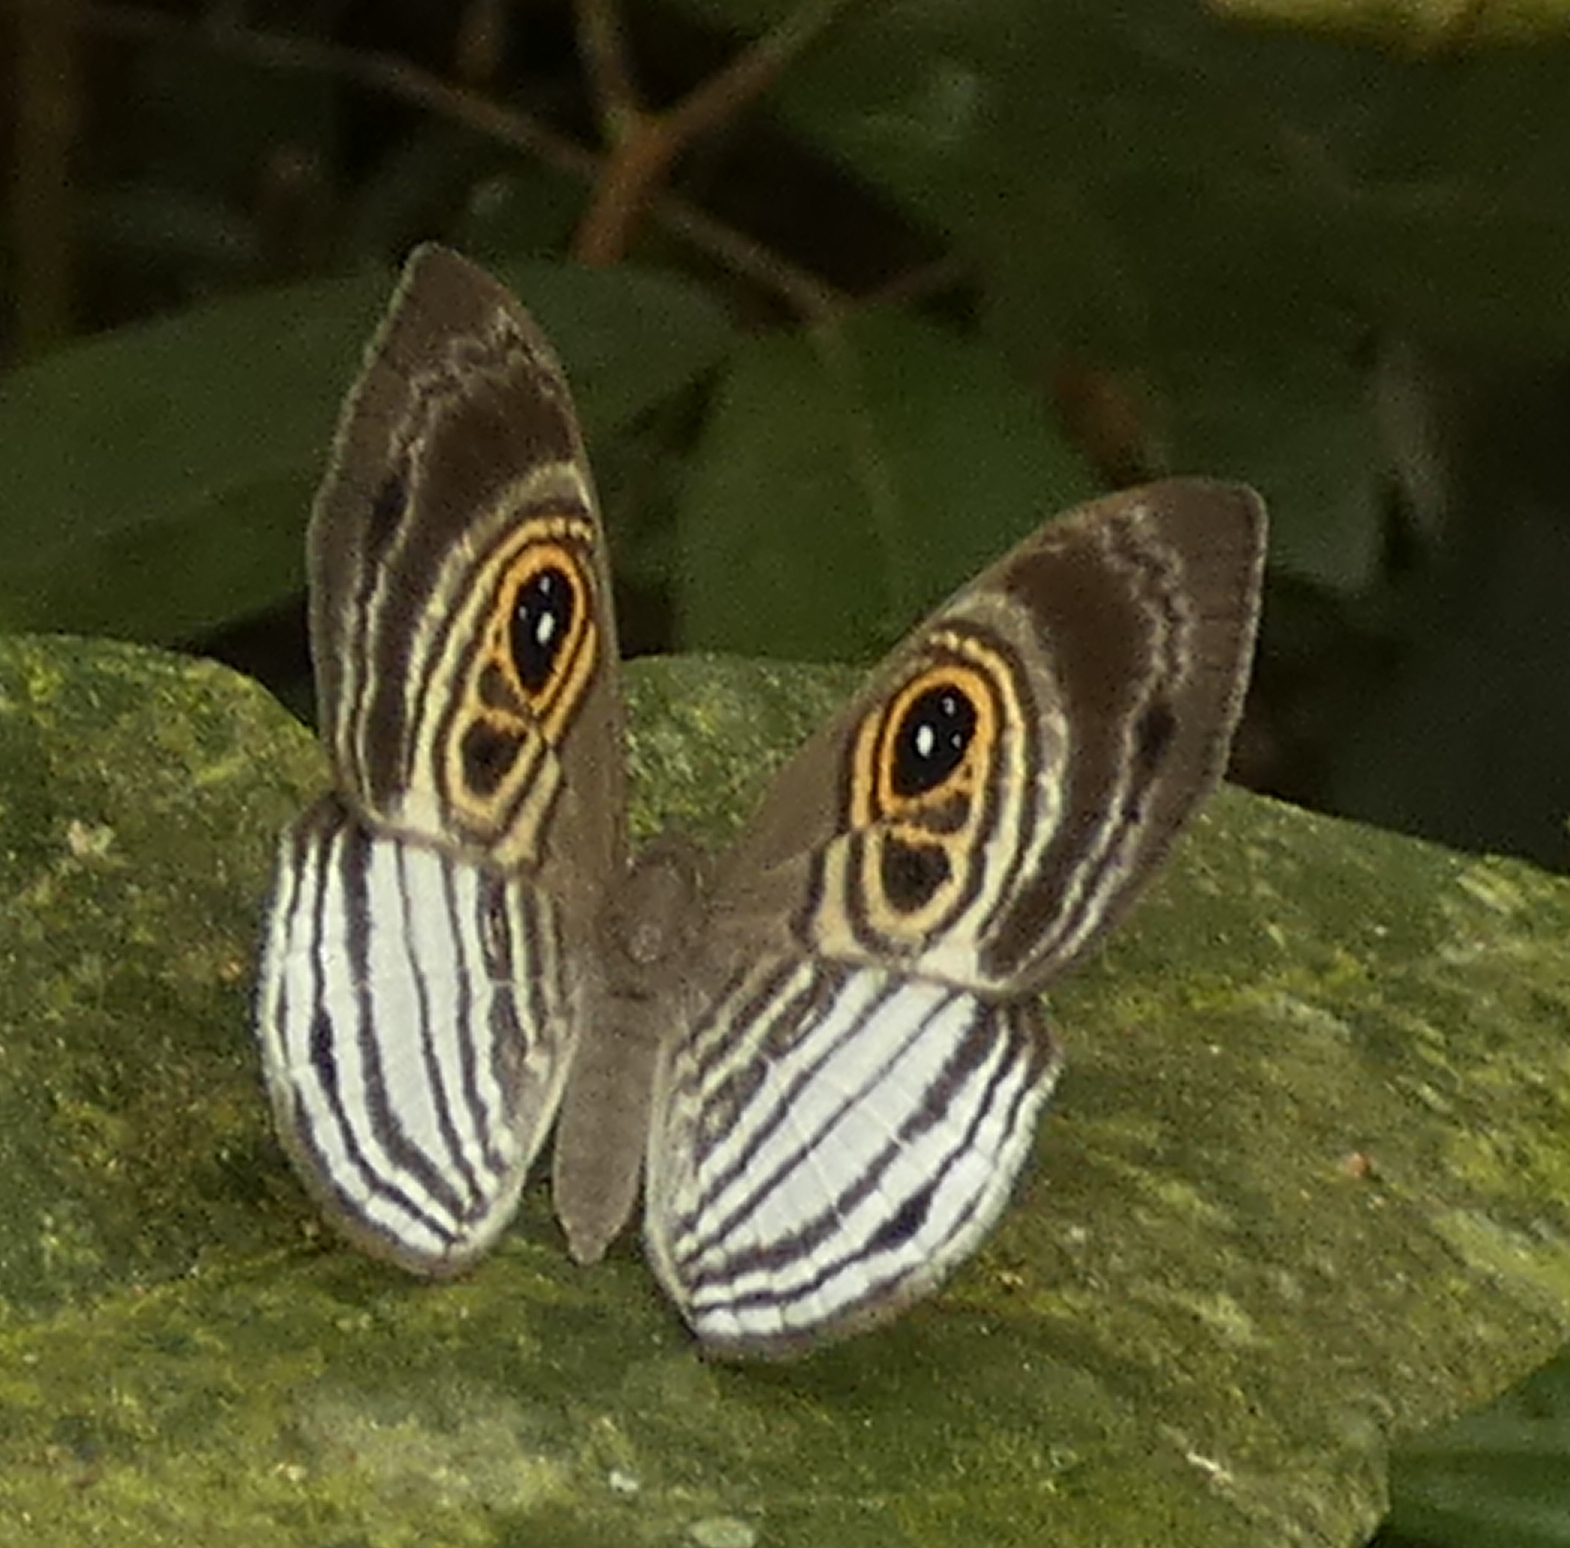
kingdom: Animalia
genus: Mesosemia
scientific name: Mesosemia minos
